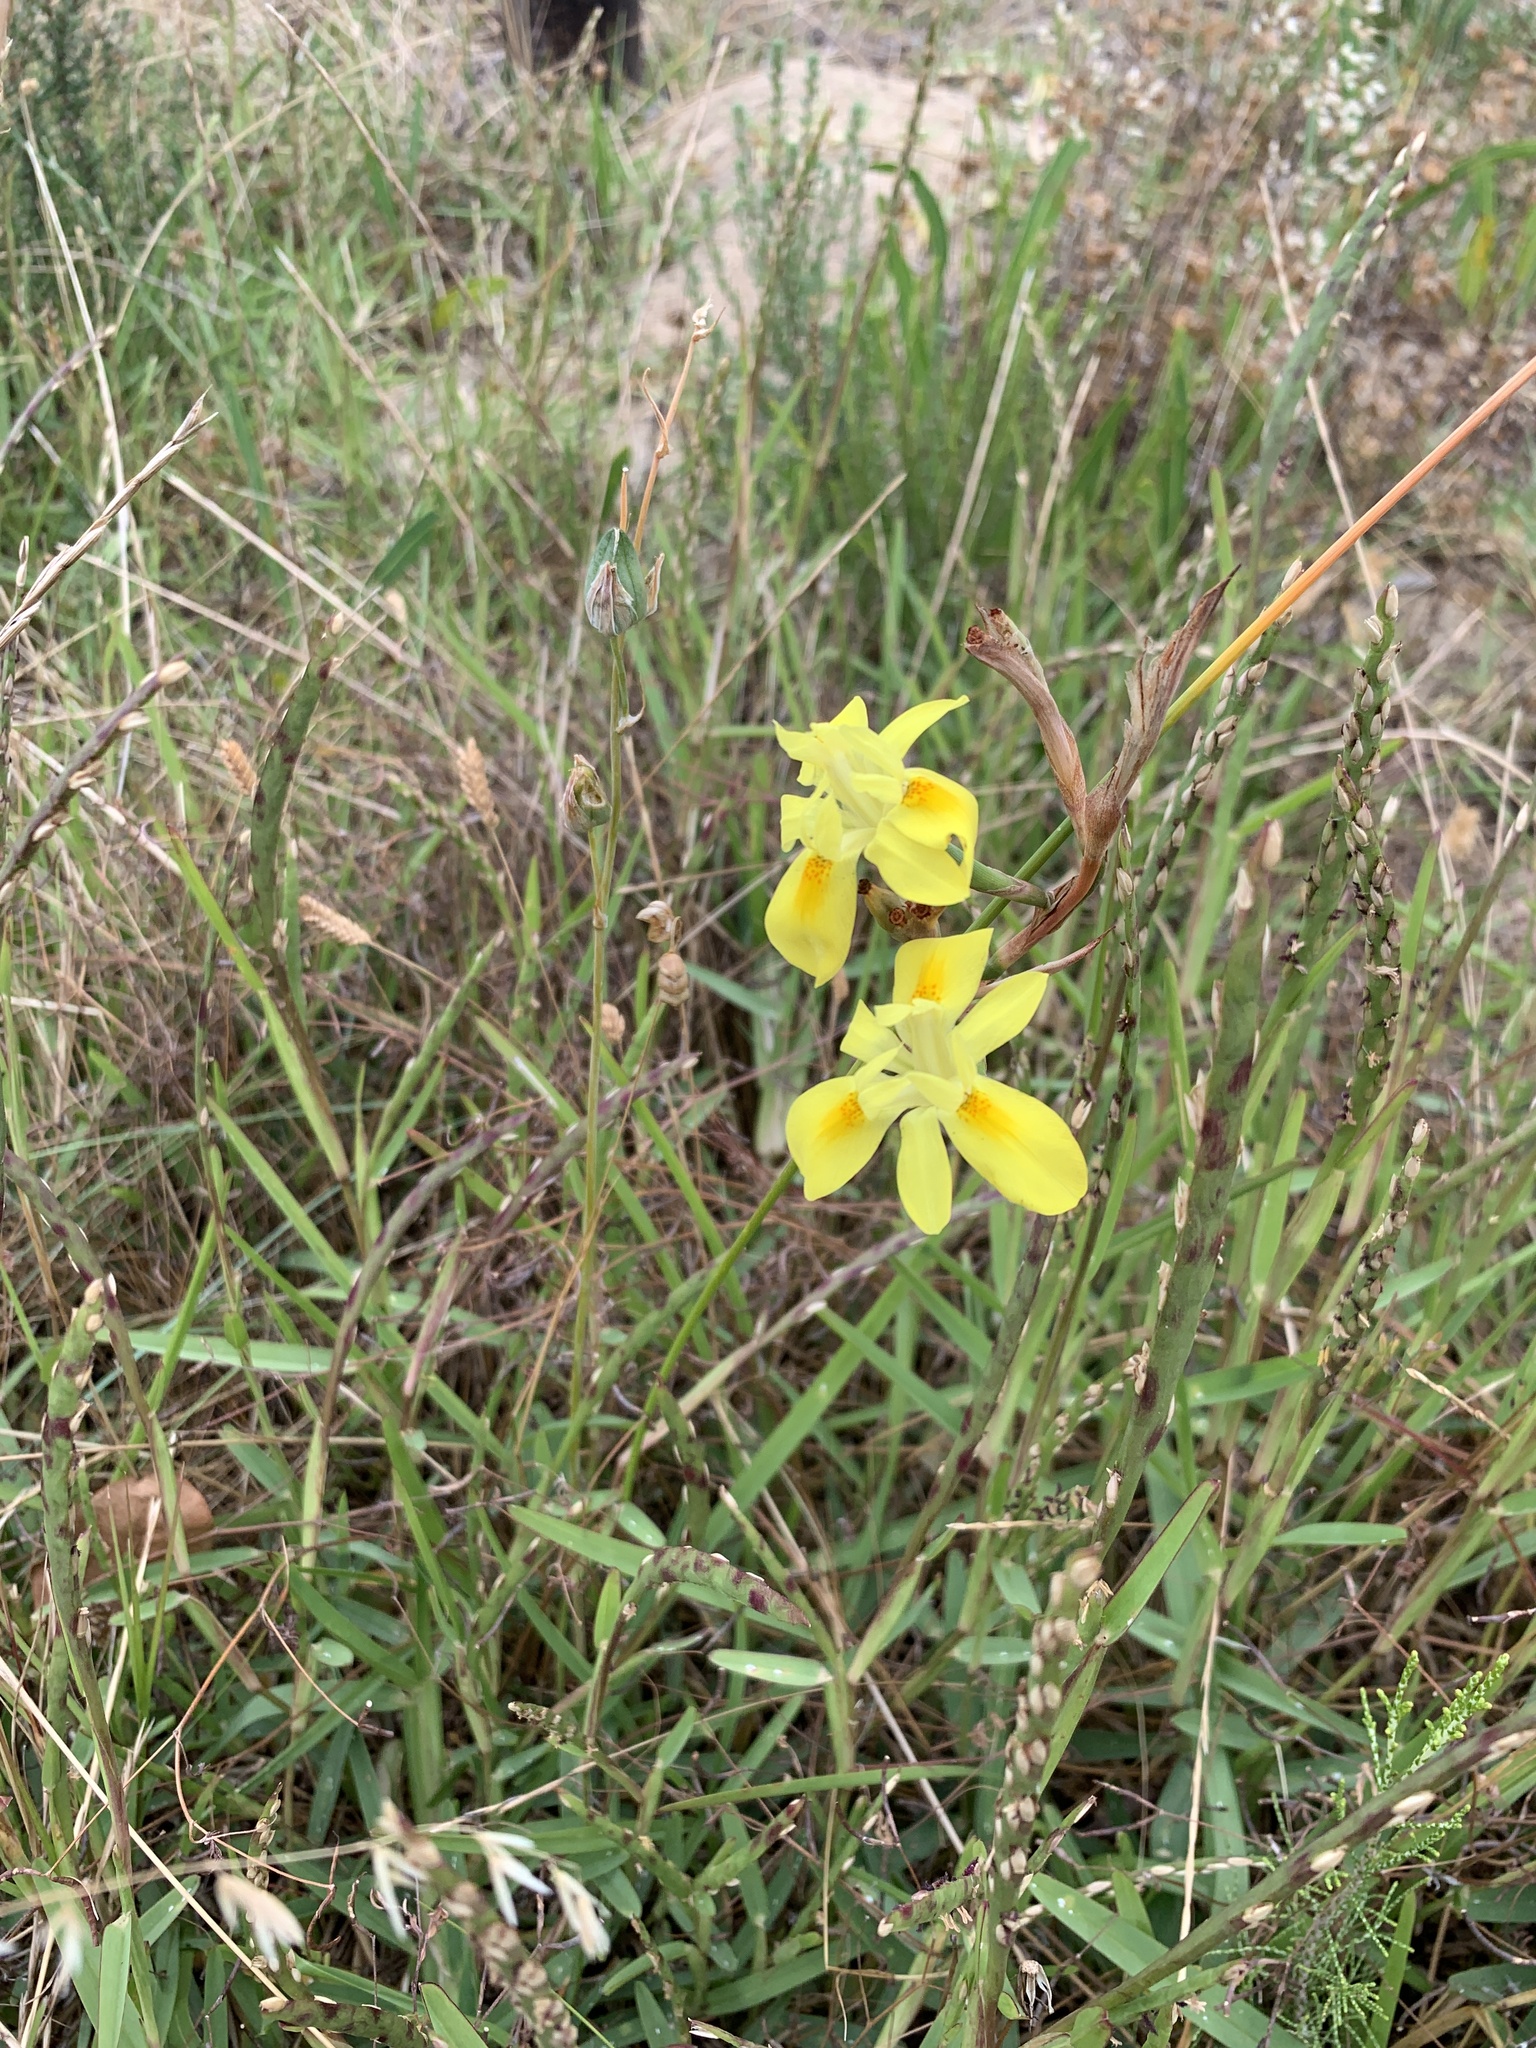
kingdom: Plantae
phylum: Tracheophyta
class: Liliopsida
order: Asparagales
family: Iridaceae
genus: Moraea
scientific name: Moraea fugax
